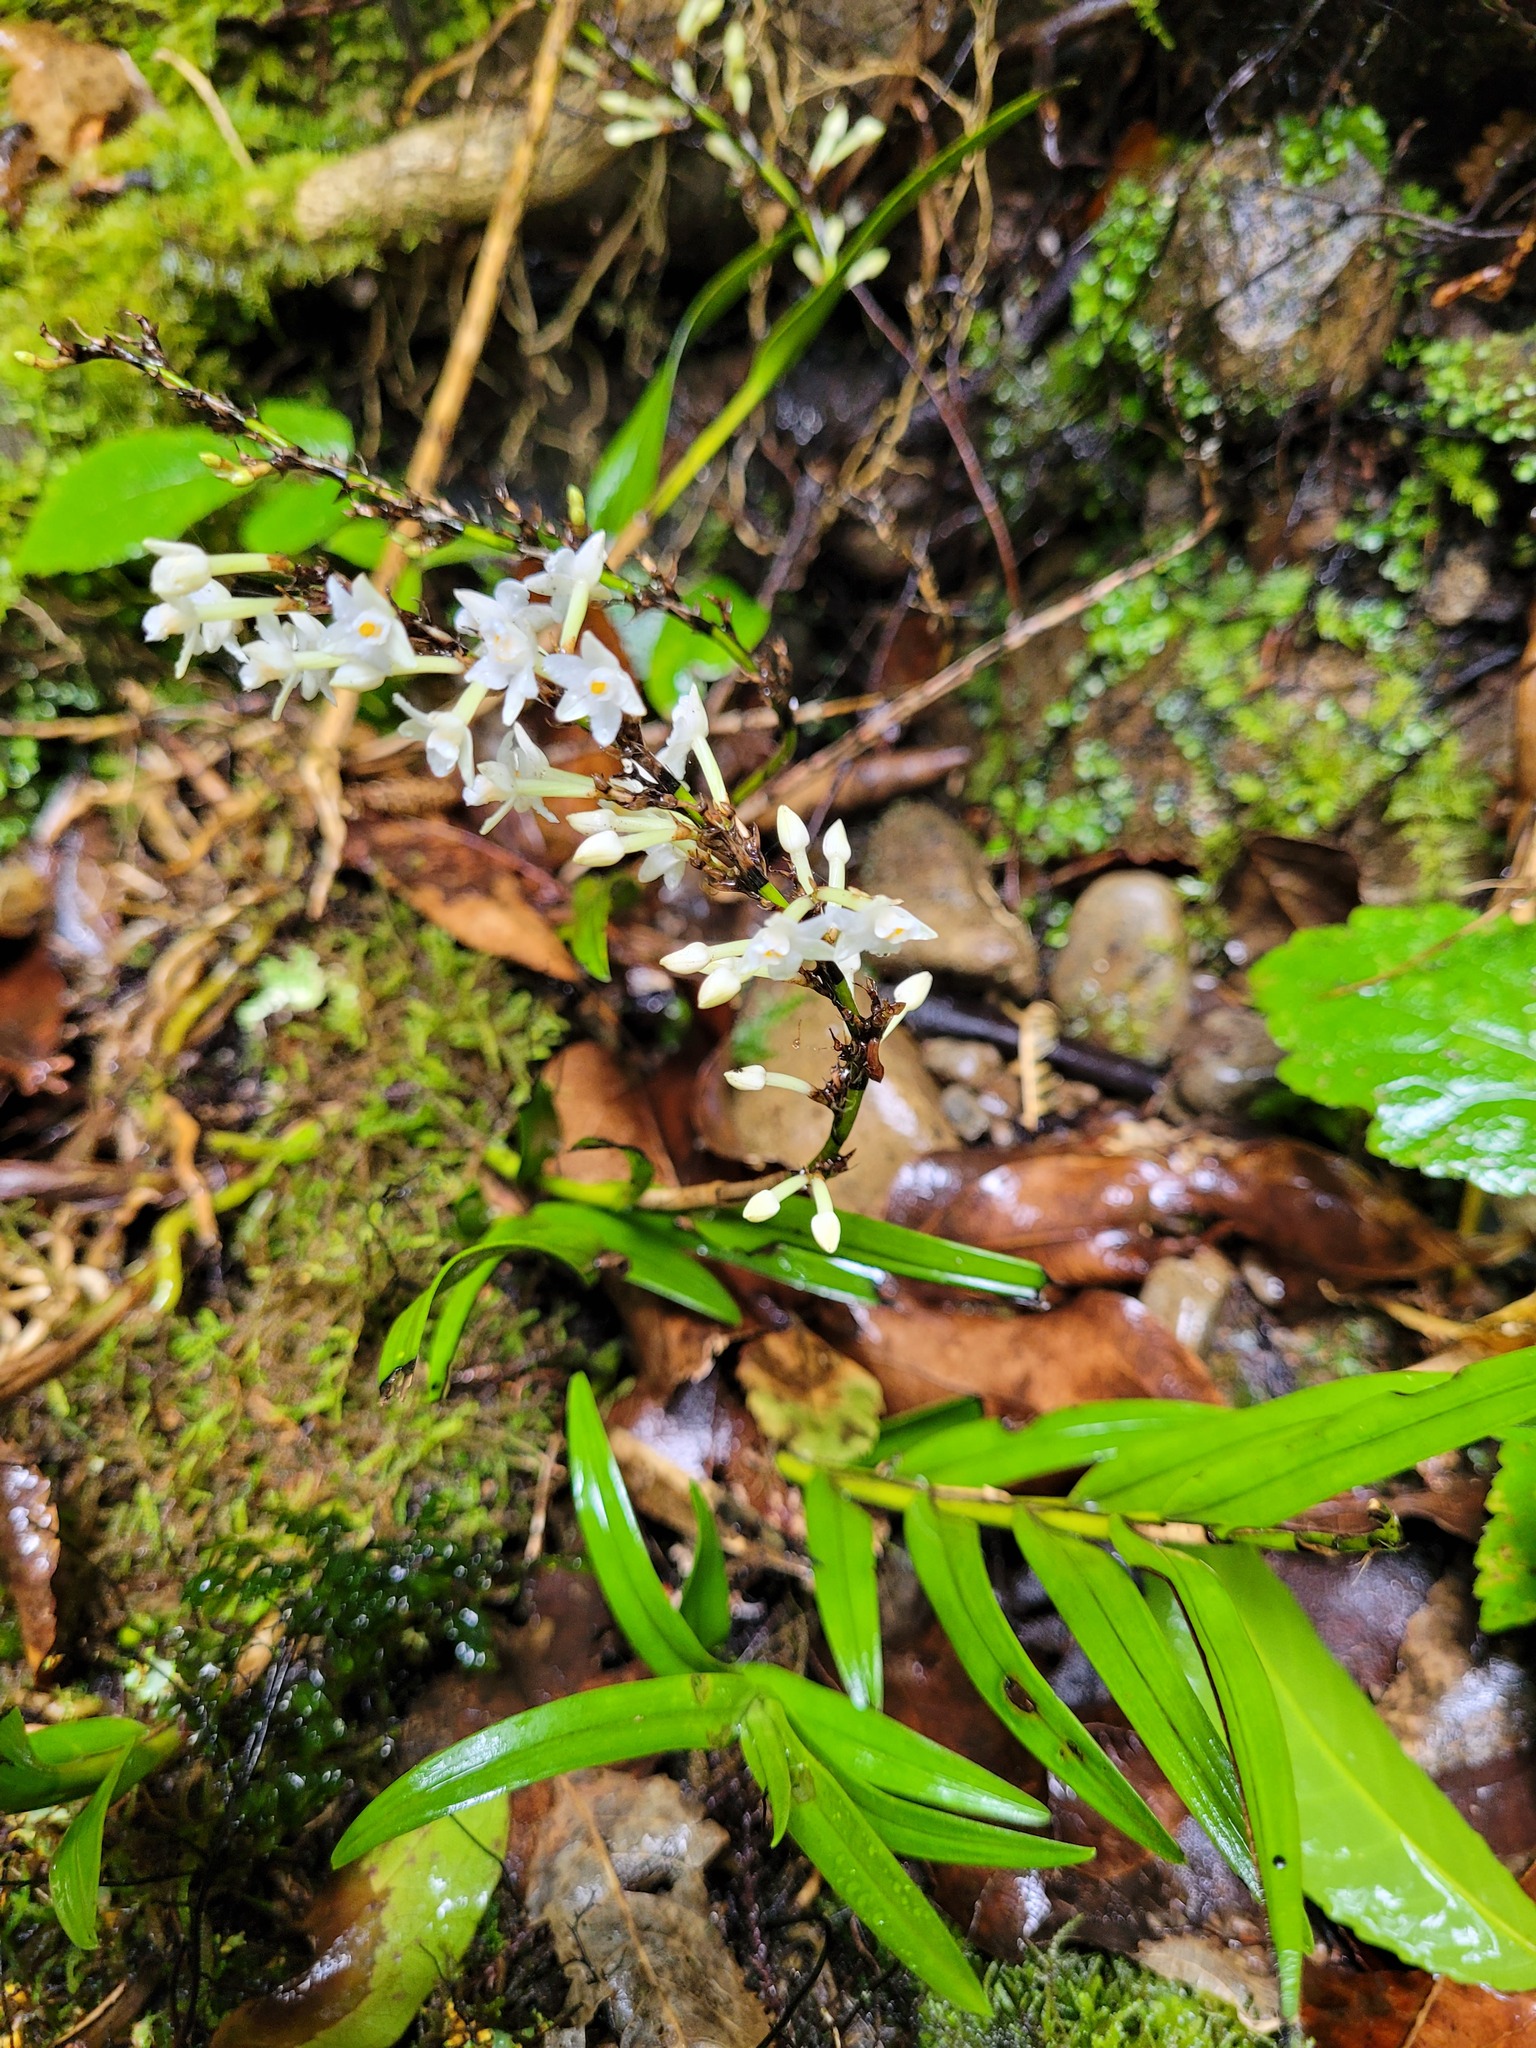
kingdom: Plantae
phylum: Tracheophyta
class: Liliopsida
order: Asparagales
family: Orchidaceae
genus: Earina
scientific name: Earina autumnalis
